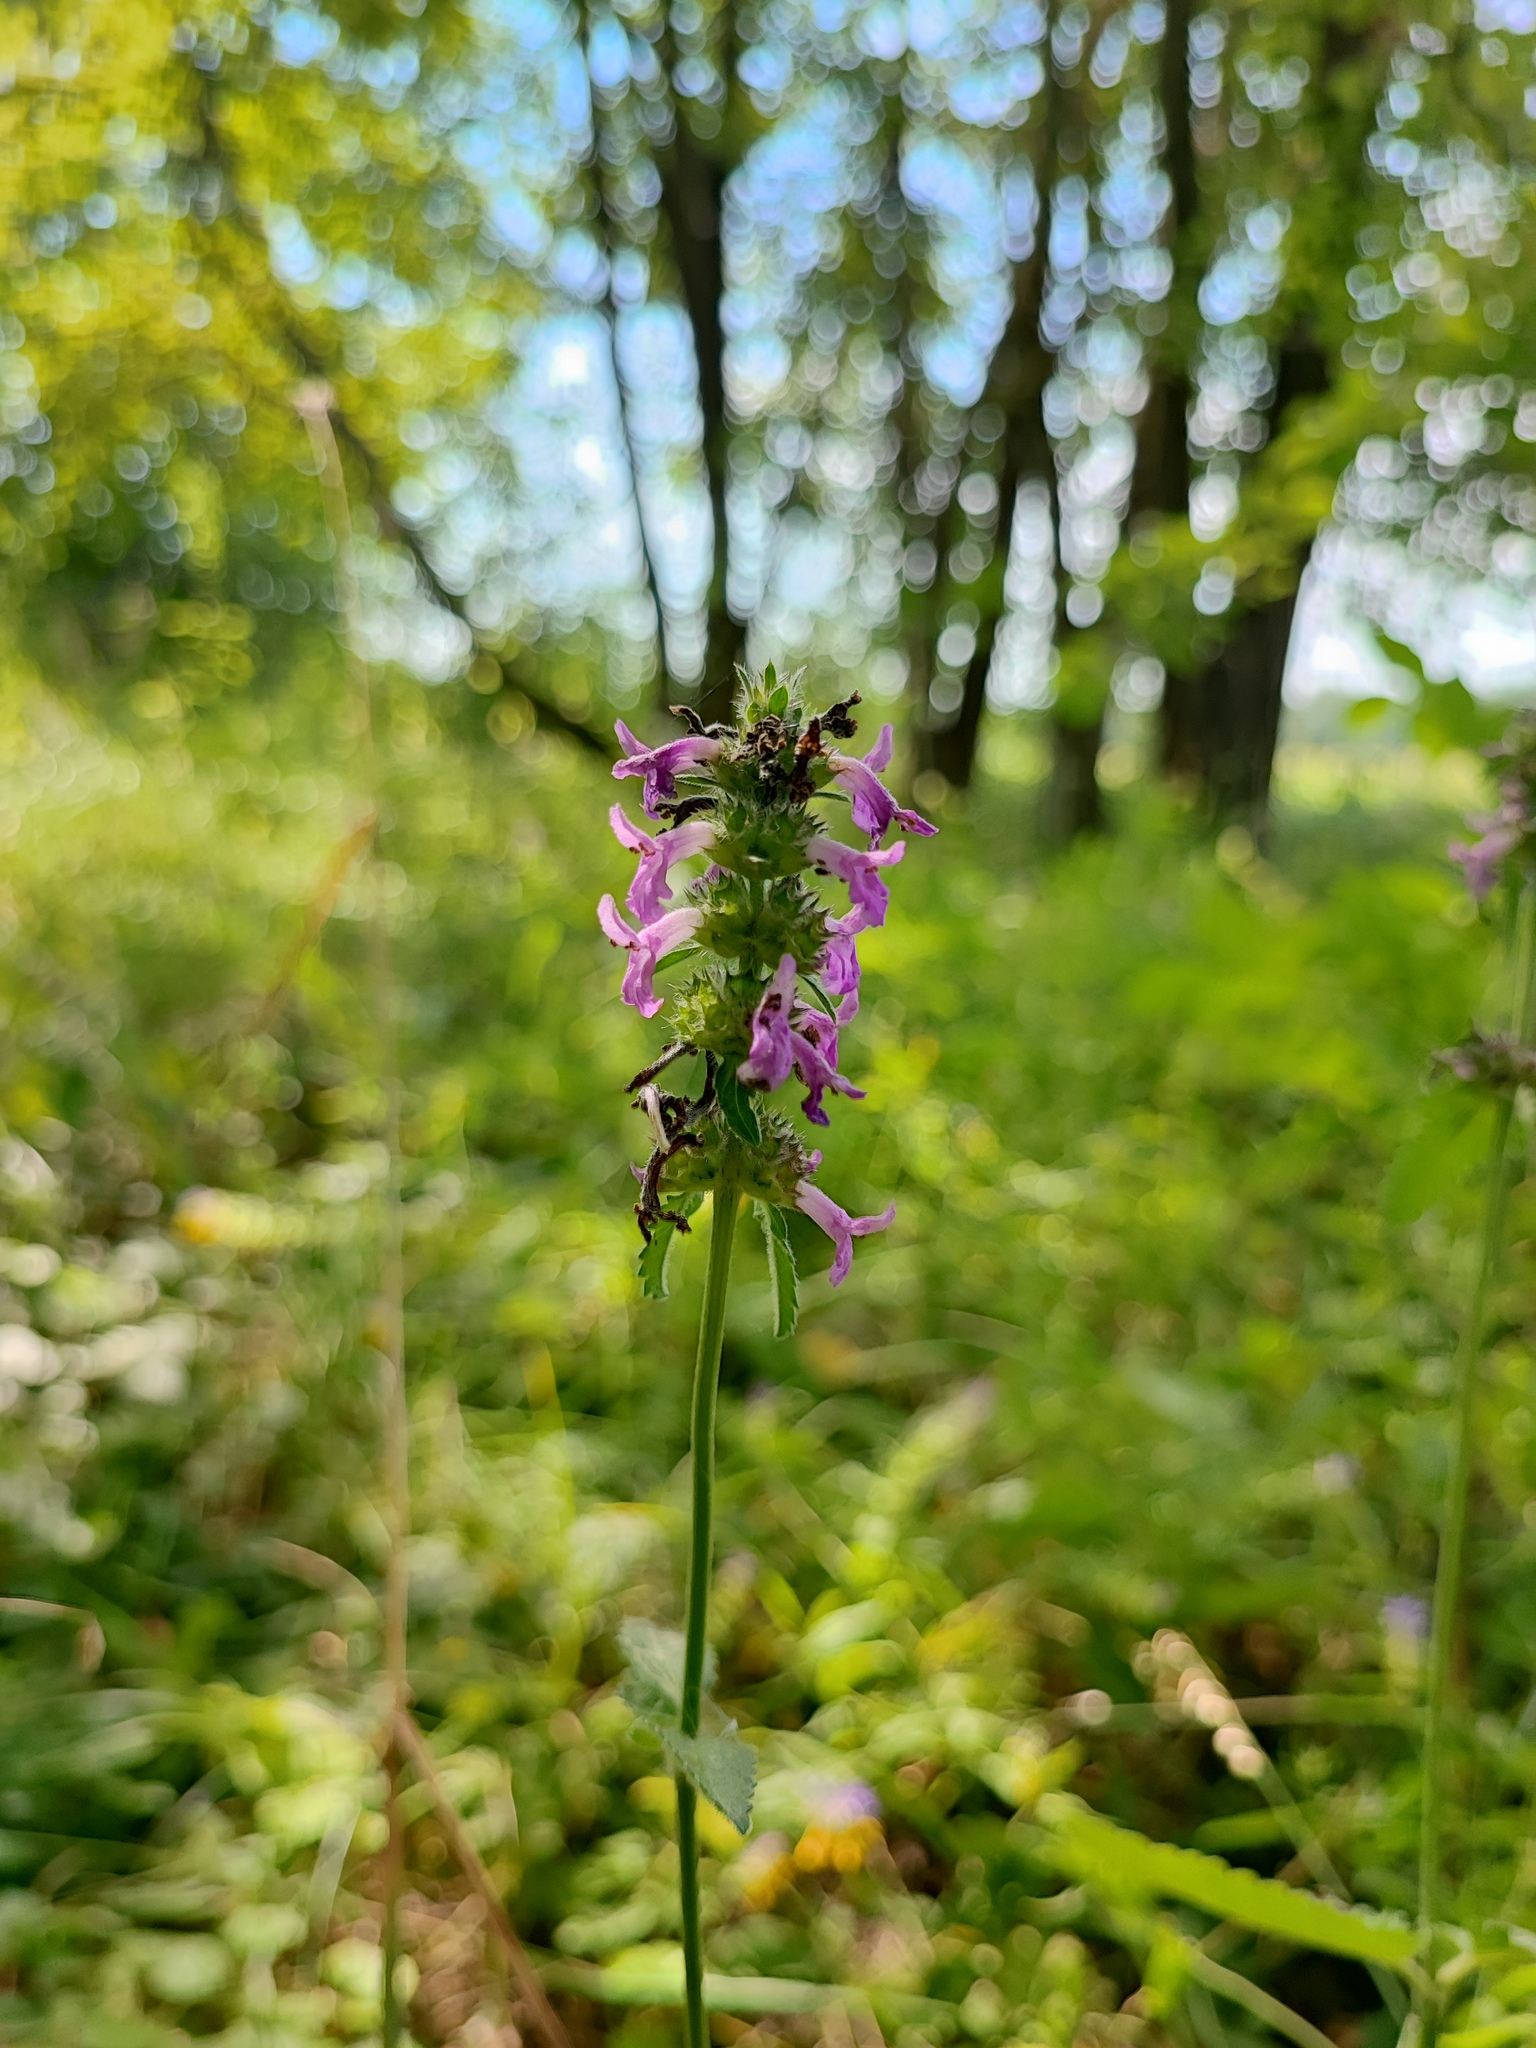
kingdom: Plantae
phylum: Tracheophyta
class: Magnoliopsida
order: Lamiales
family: Lamiaceae
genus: Betonica
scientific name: Betonica officinalis
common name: Bishop's-wort
